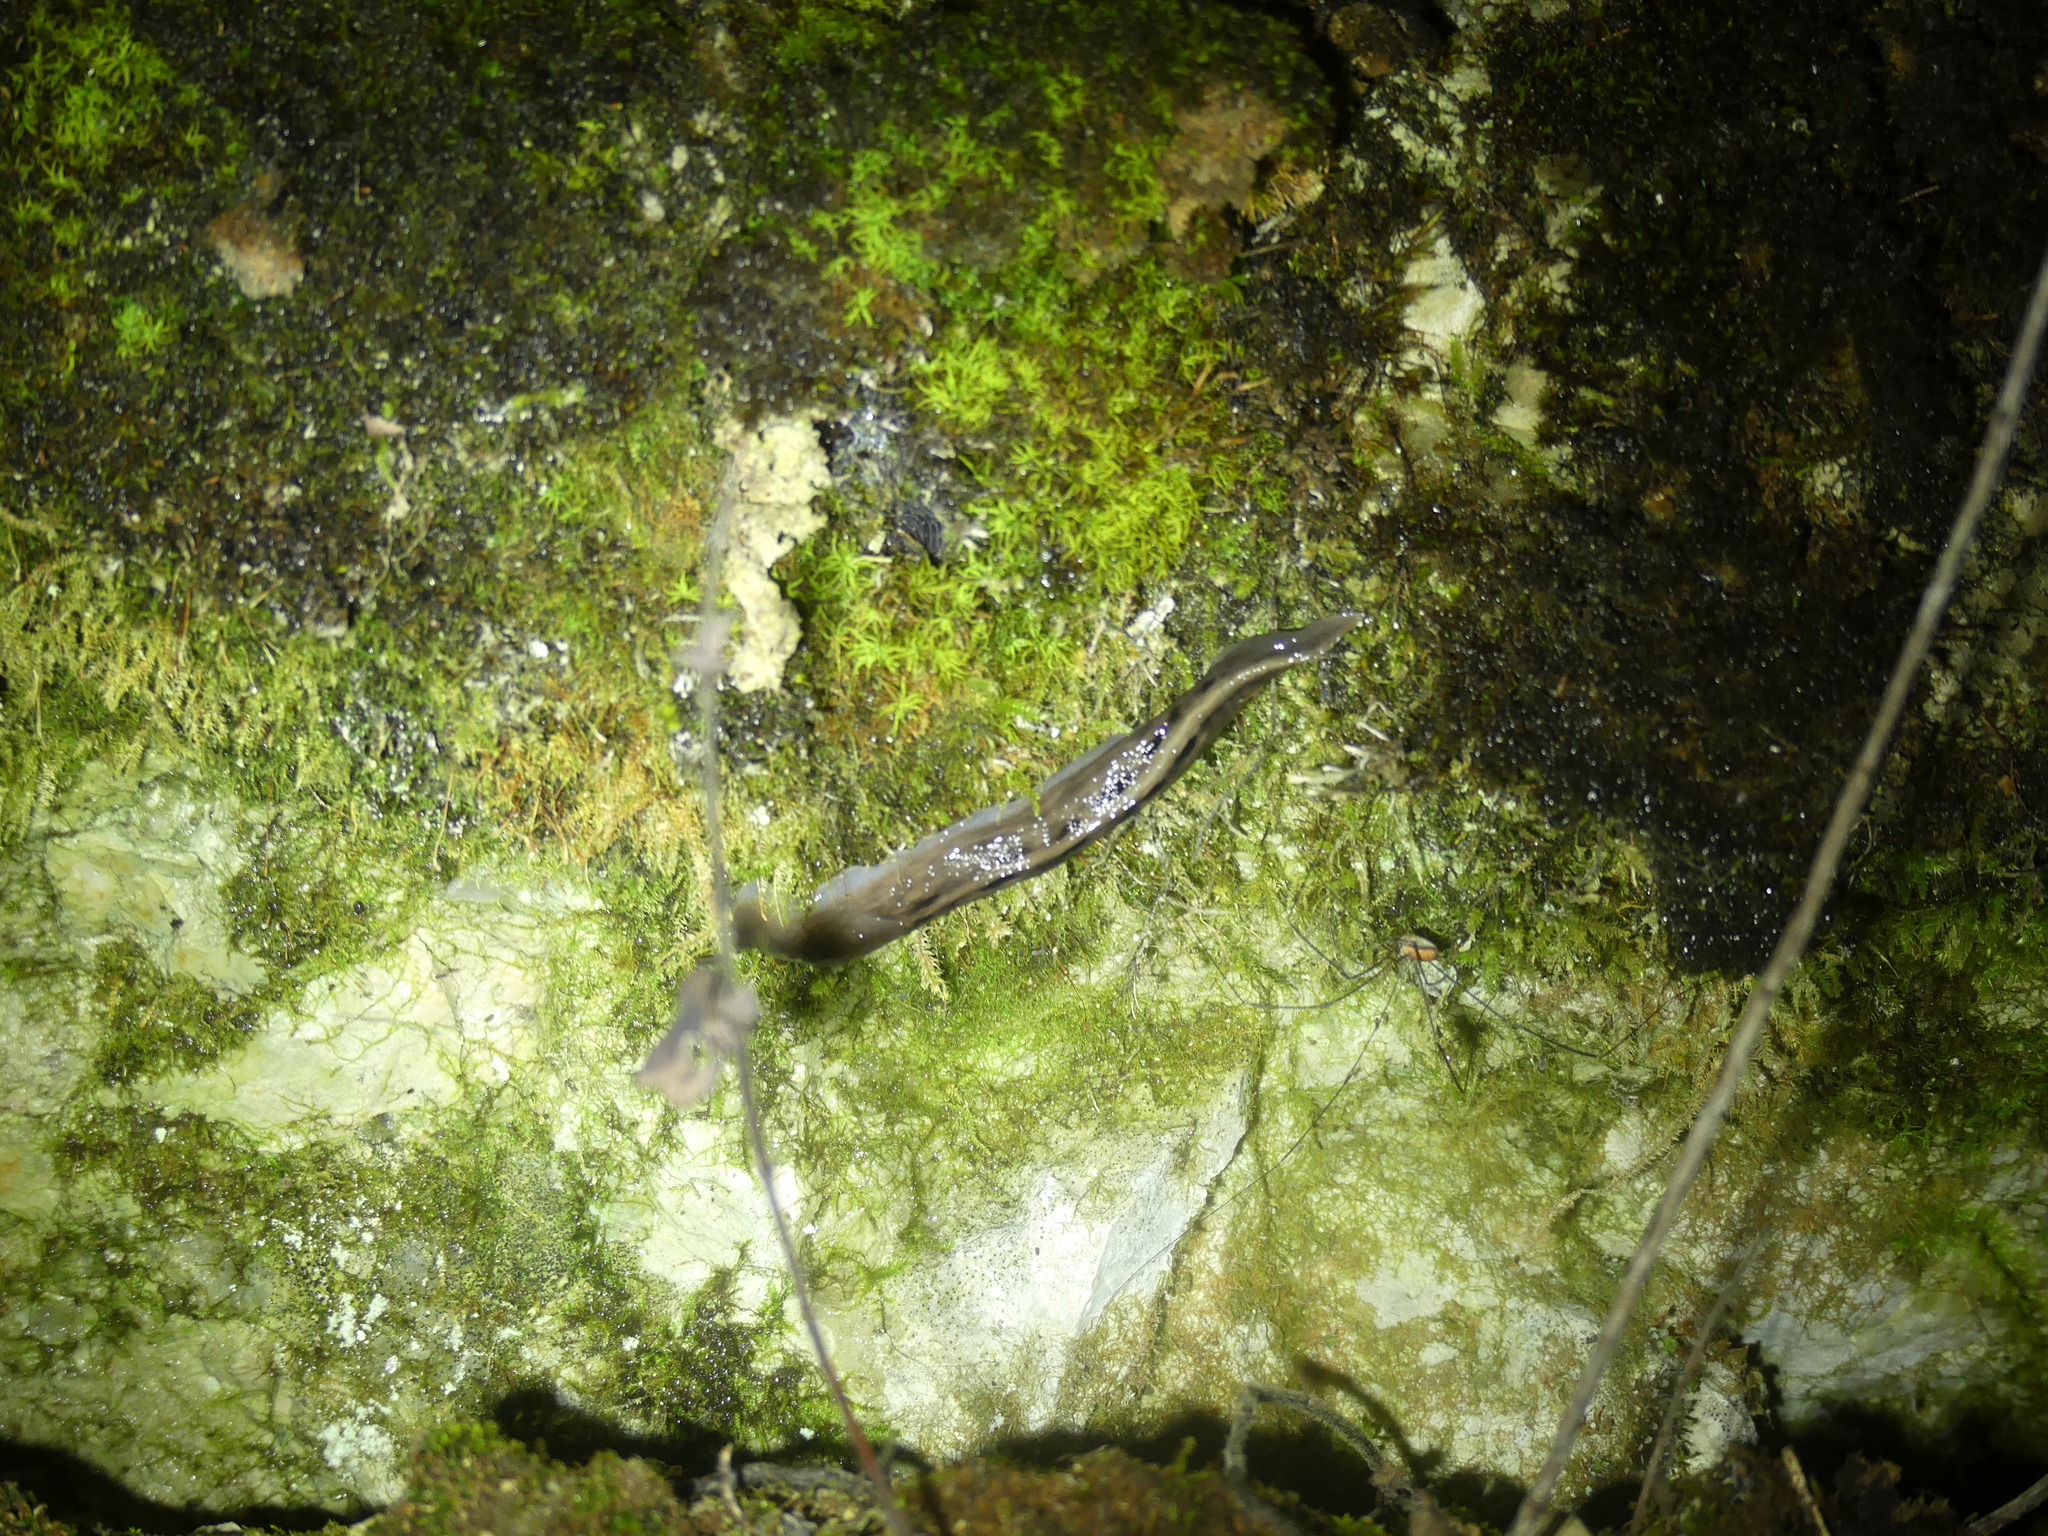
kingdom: Animalia
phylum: Mollusca
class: Gastropoda
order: Stylommatophora
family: Limacidae
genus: Limax
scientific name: Limax cinereoniger
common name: Ash-black slug
